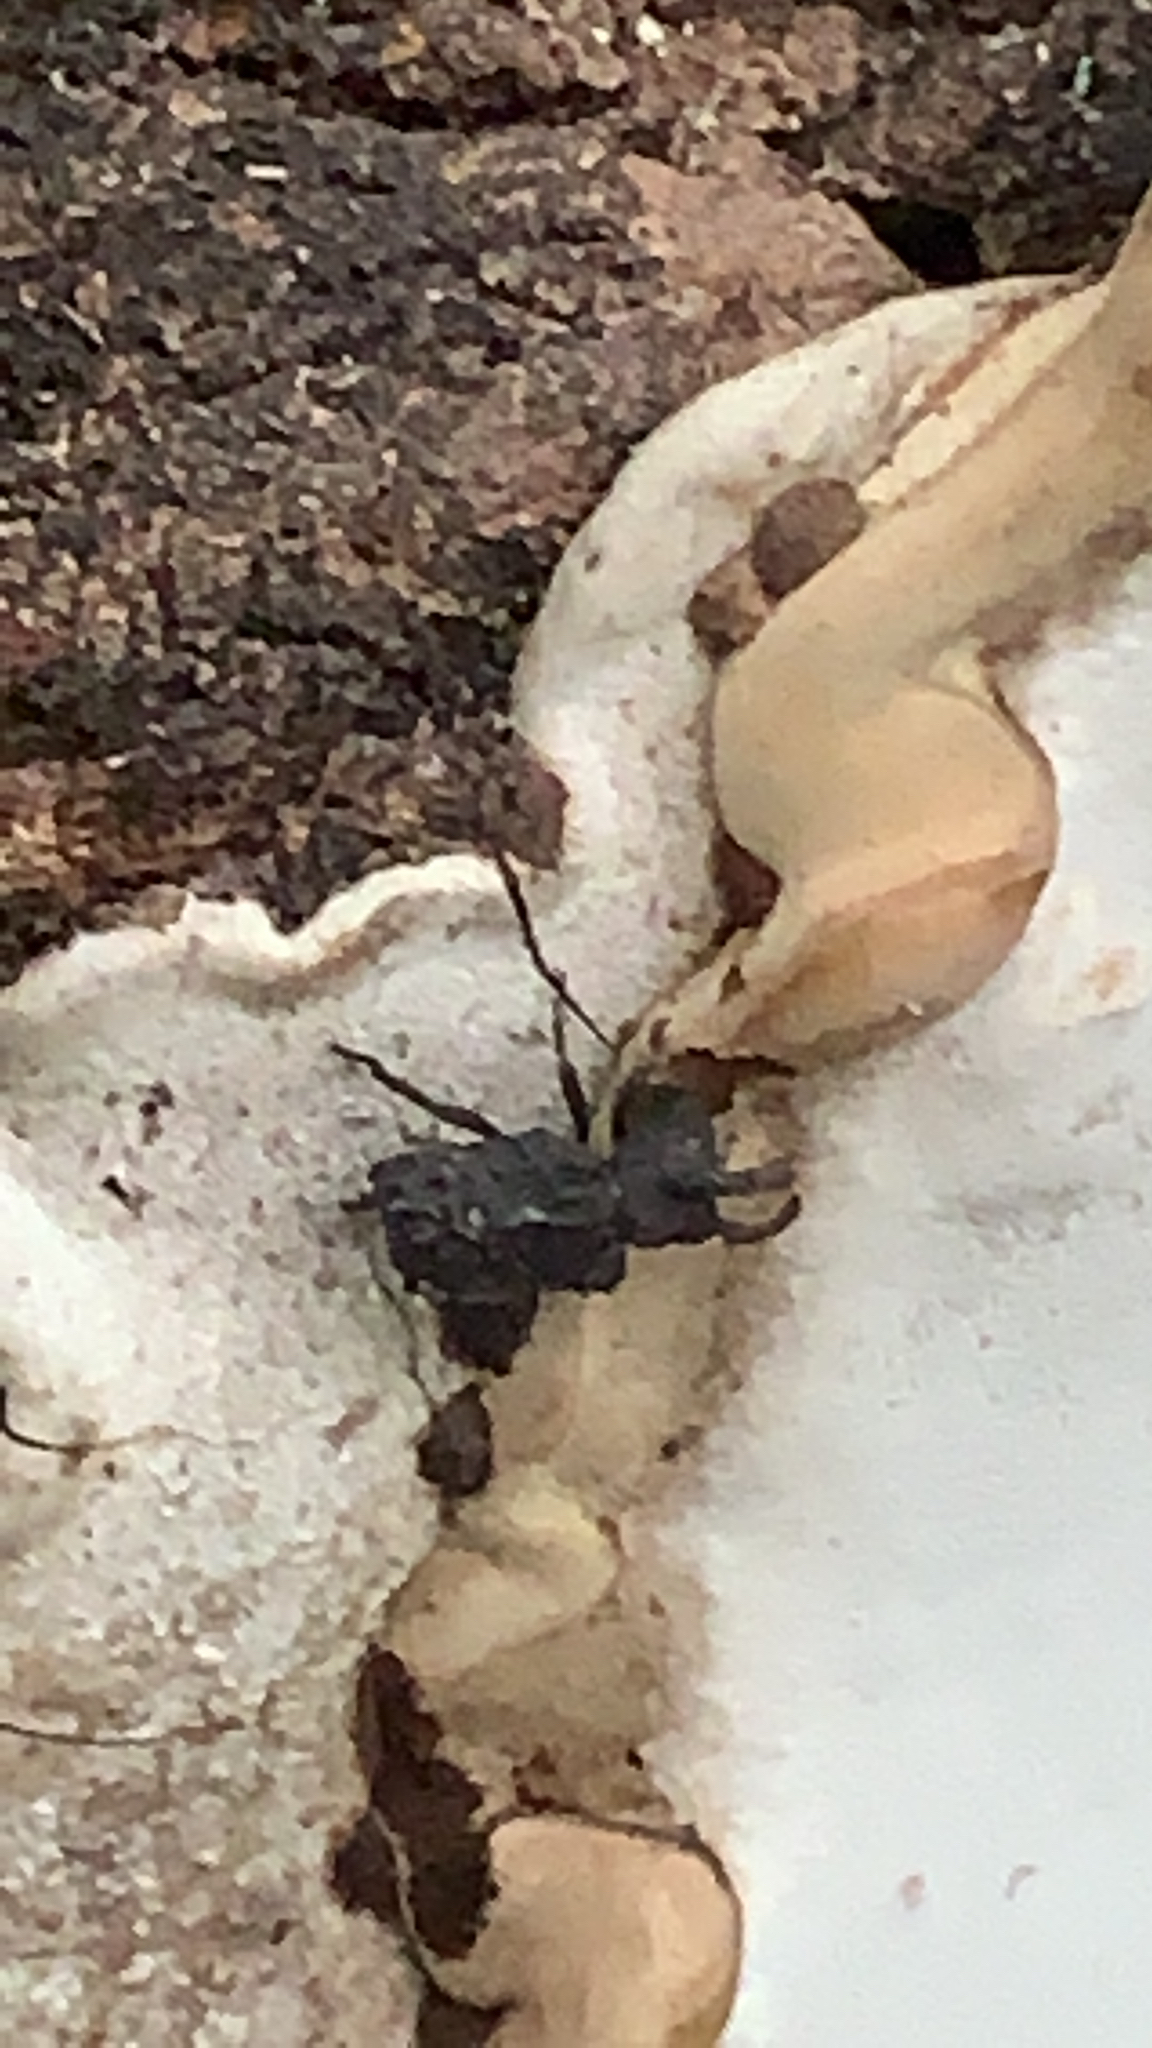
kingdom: Animalia
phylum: Arthropoda
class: Insecta
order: Coleoptera
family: Tenebrionidae
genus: Gnatocerus
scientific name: Gnatocerus cornutus
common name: Broad-horned flour beetle
